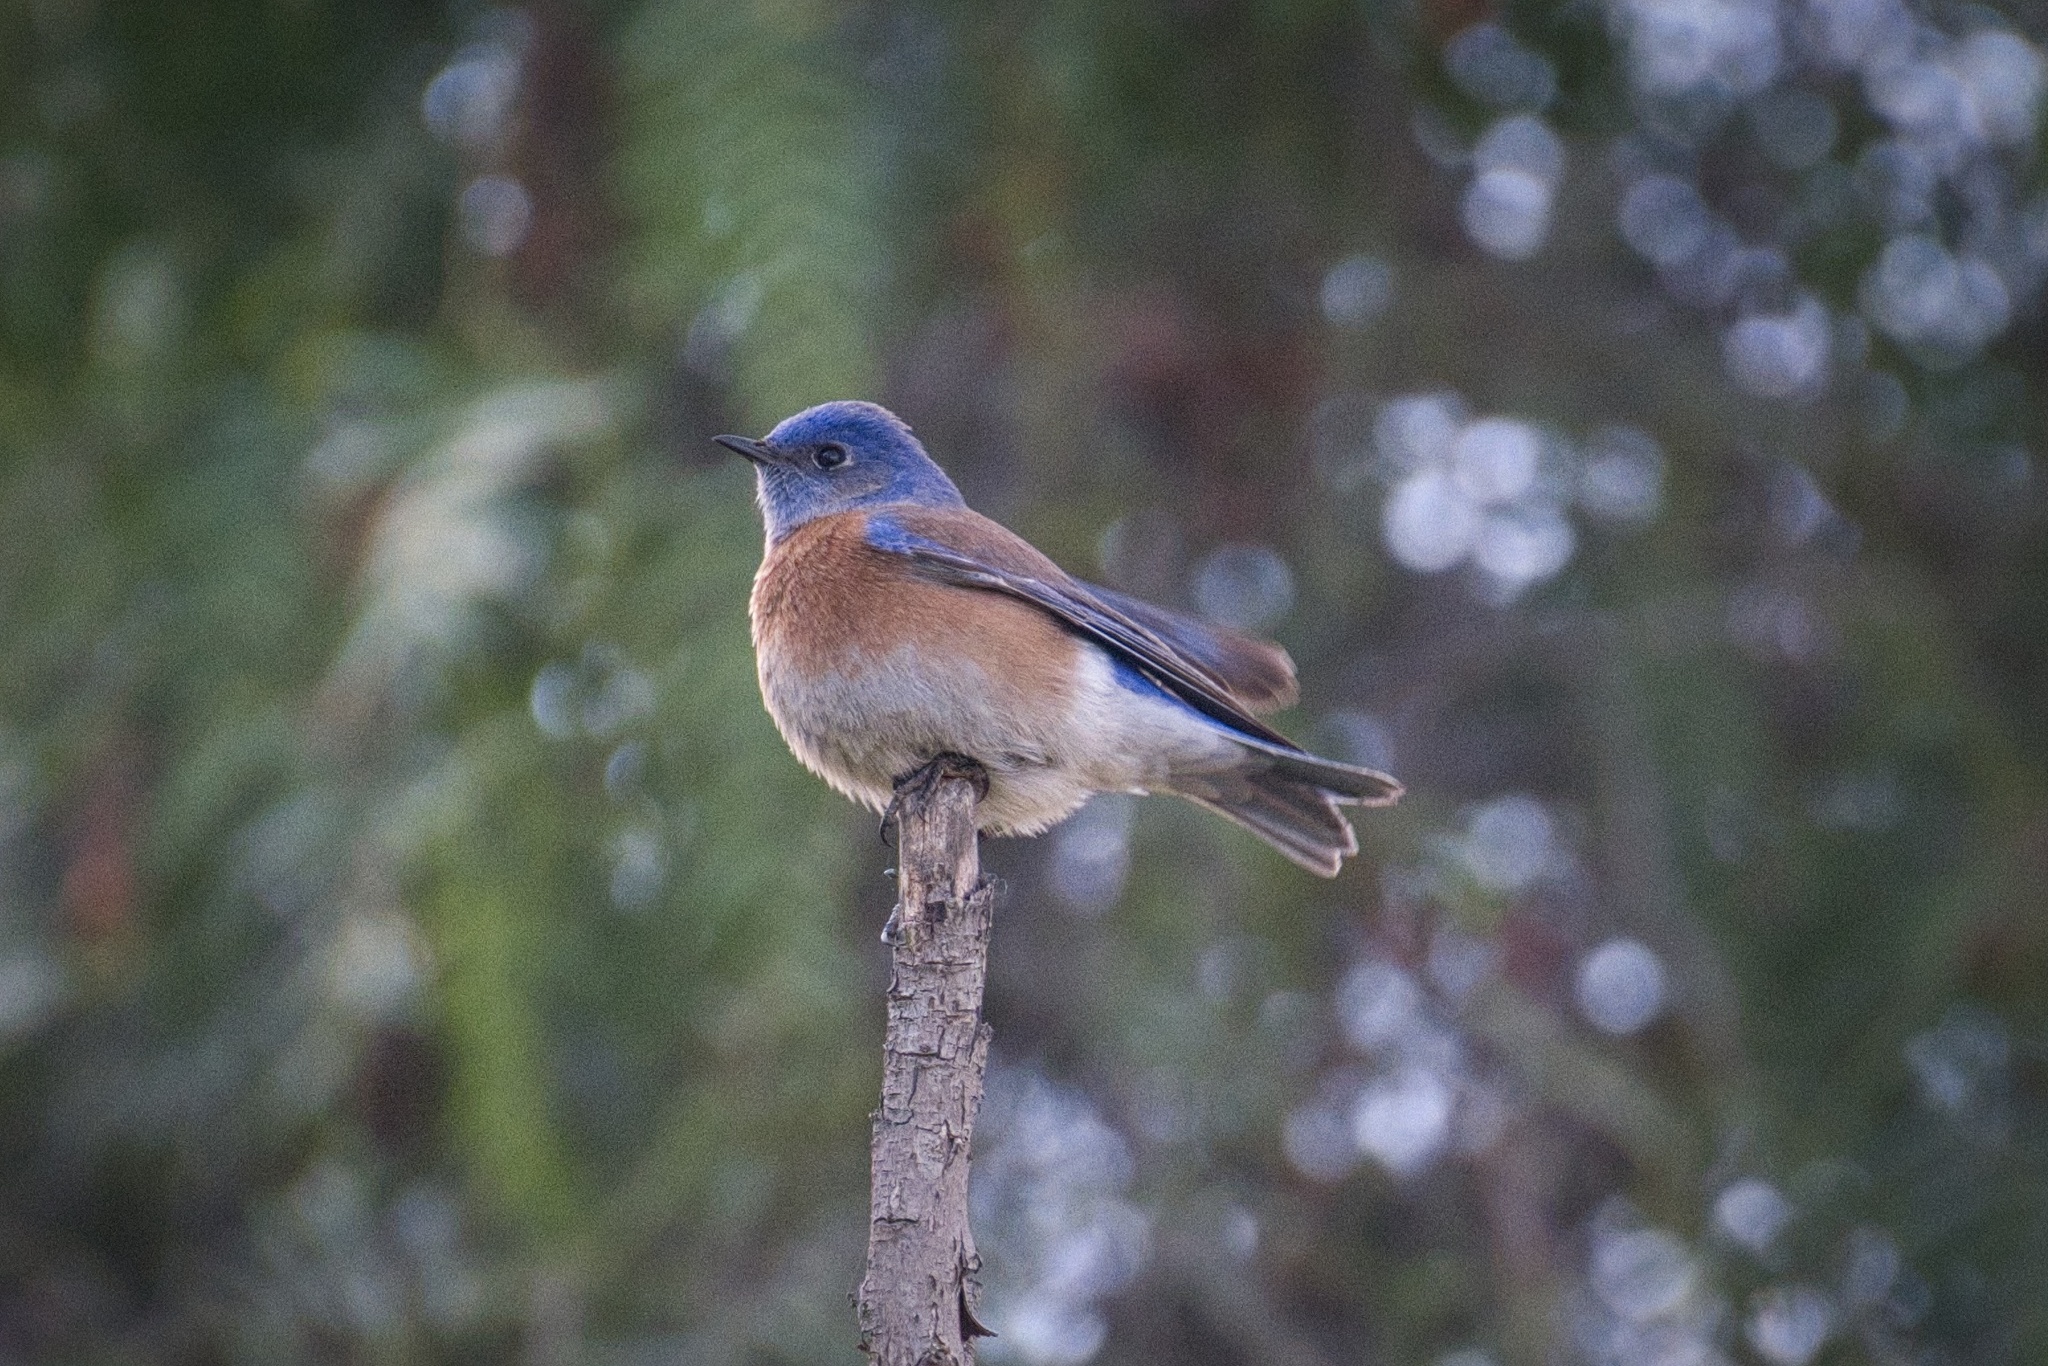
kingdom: Animalia
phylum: Chordata
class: Aves
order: Passeriformes
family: Turdidae
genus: Sialia
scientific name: Sialia mexicana
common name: Western bluebird
